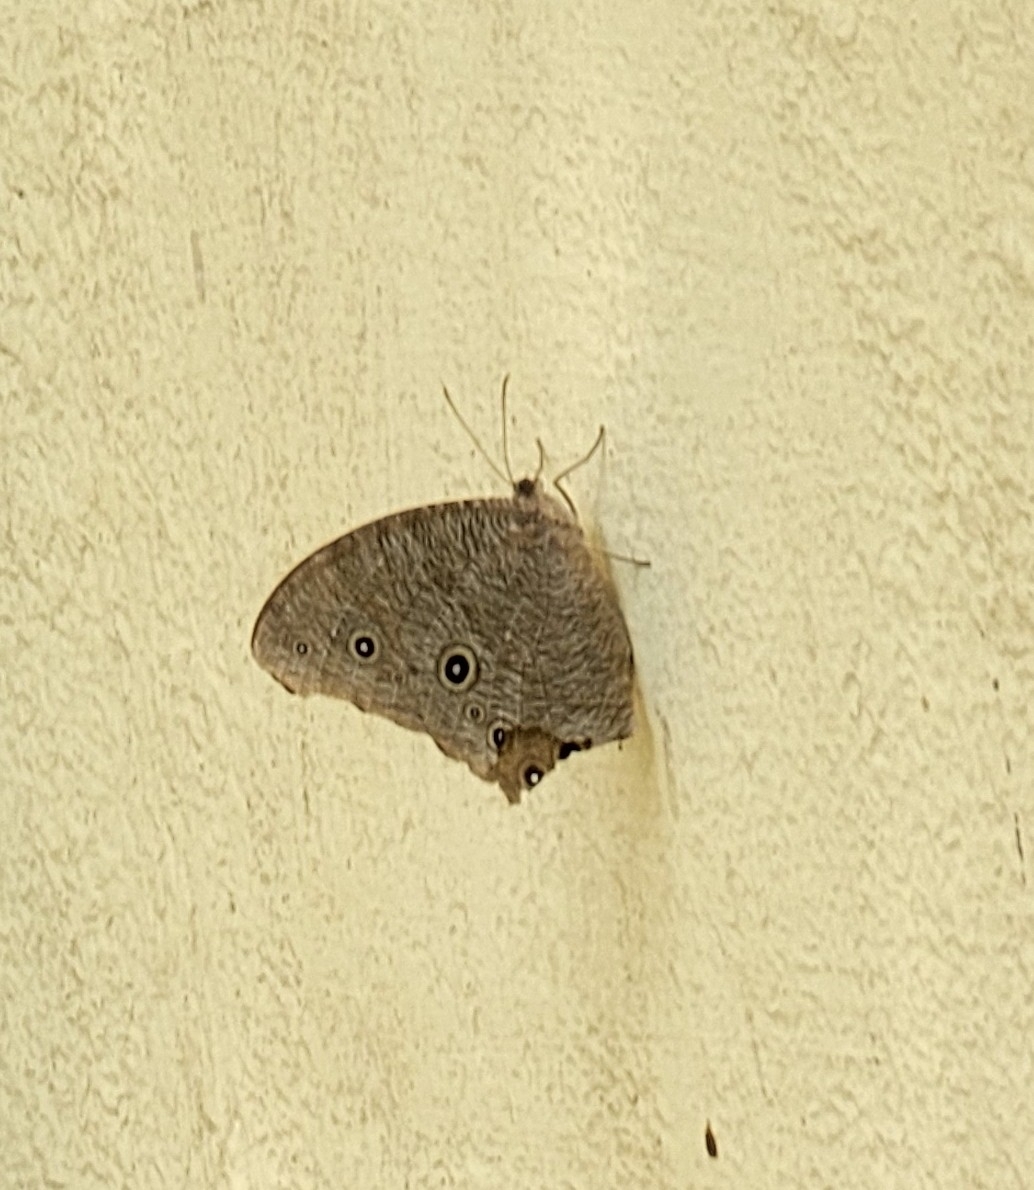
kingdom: Animalia
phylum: Arthropoda
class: Insecta
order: Lepidoptera
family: Nymphalidae
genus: Melanitis
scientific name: Melanitis leda
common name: Twilight brown
